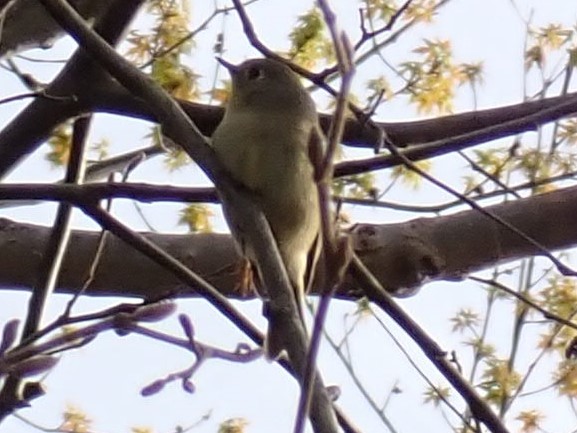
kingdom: Animalia
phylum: Chordata
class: Aves
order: Passeriformes
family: Regulidae
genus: Regulus
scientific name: Regulus calendula
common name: Ruby-crowned kinglet
